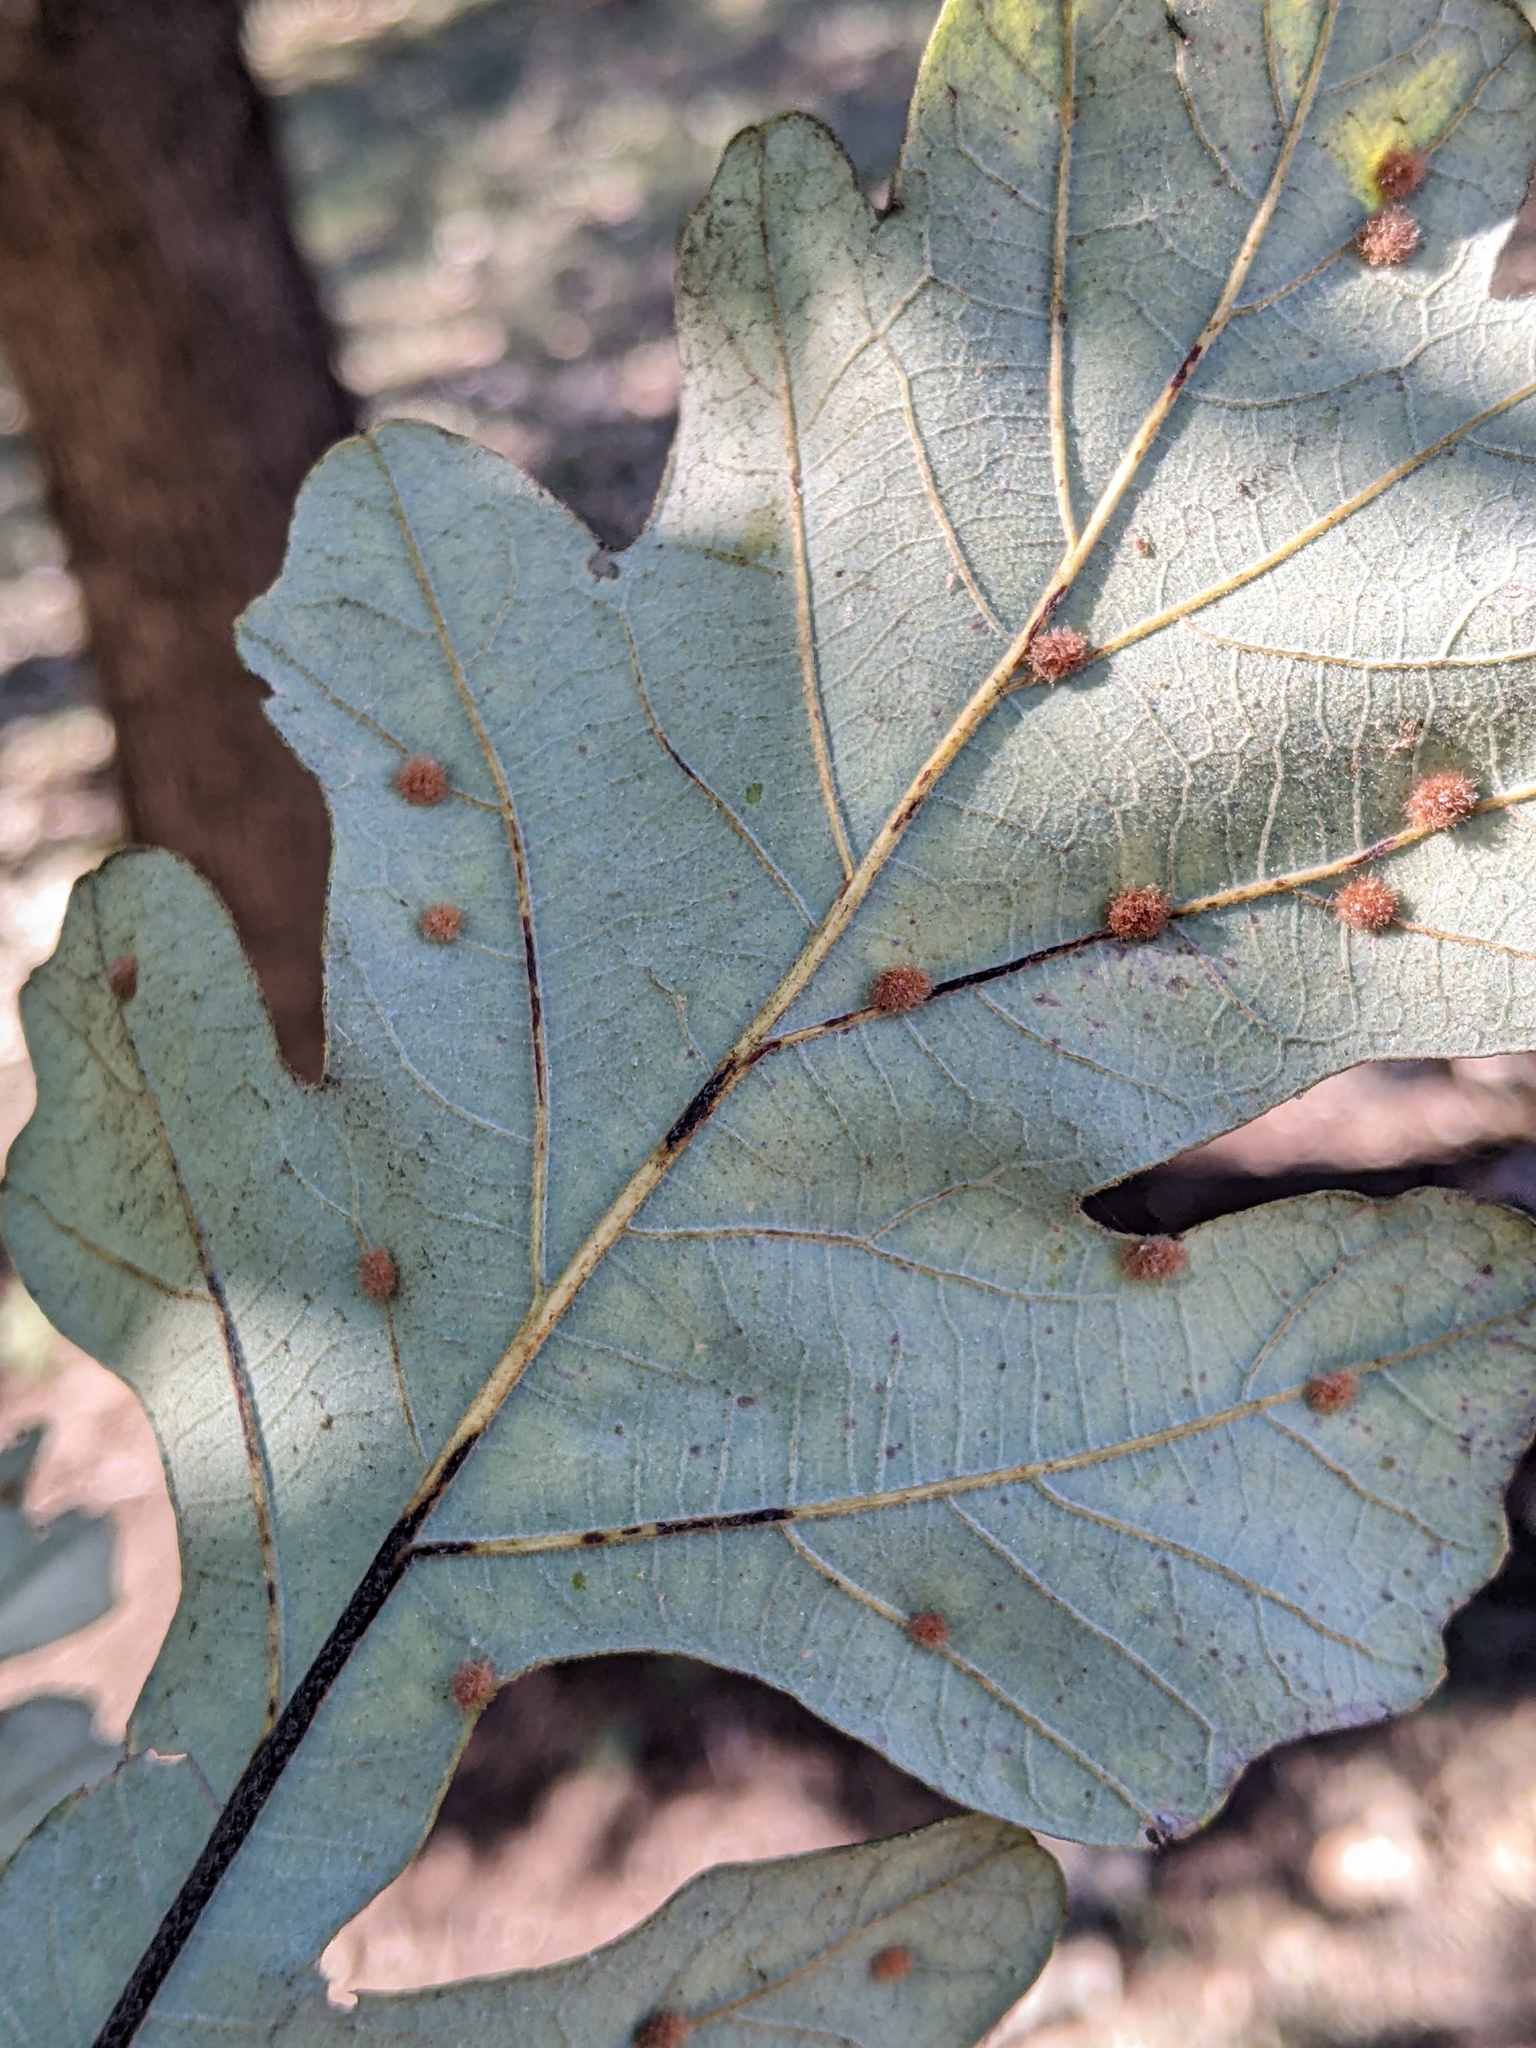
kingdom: Animalia
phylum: Arthropoda
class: Insecta
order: Hymenoptera
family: Cynipidae
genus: Neuroterus
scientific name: Neuroterus quercusverrucarum
